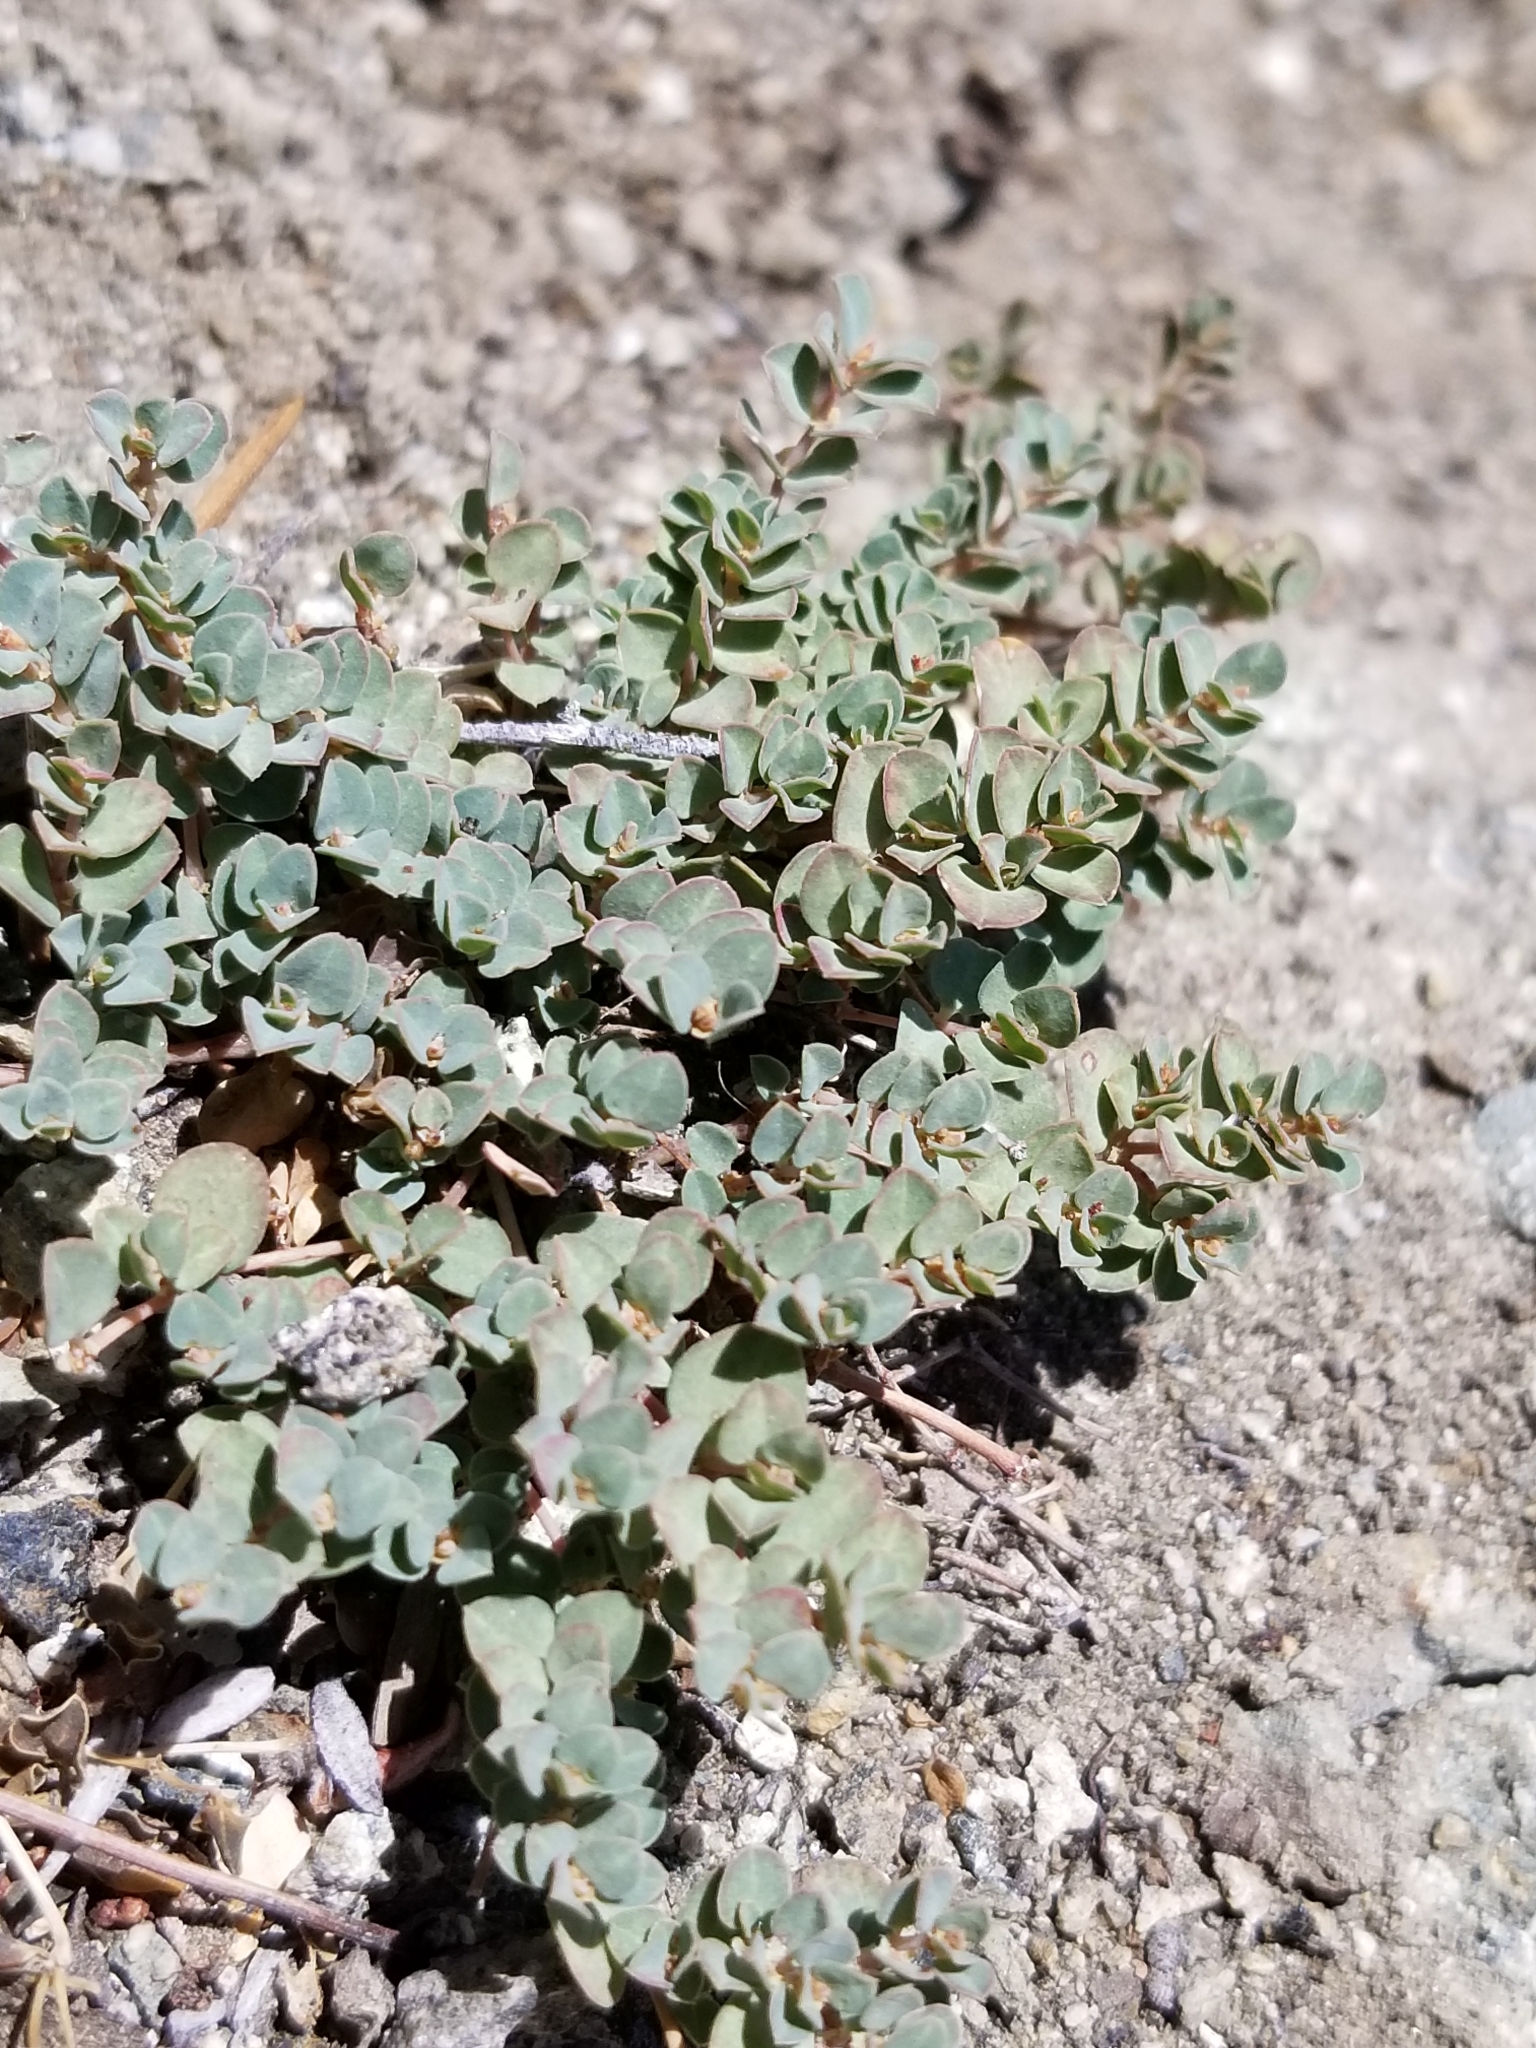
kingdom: Plantae
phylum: Tracheophyta
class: Magnoliopsida
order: Malpighiales
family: Euphorbiaceae
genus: Euphorbia
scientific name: Euphorbia albomarginata
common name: Whitemargin sandmat
